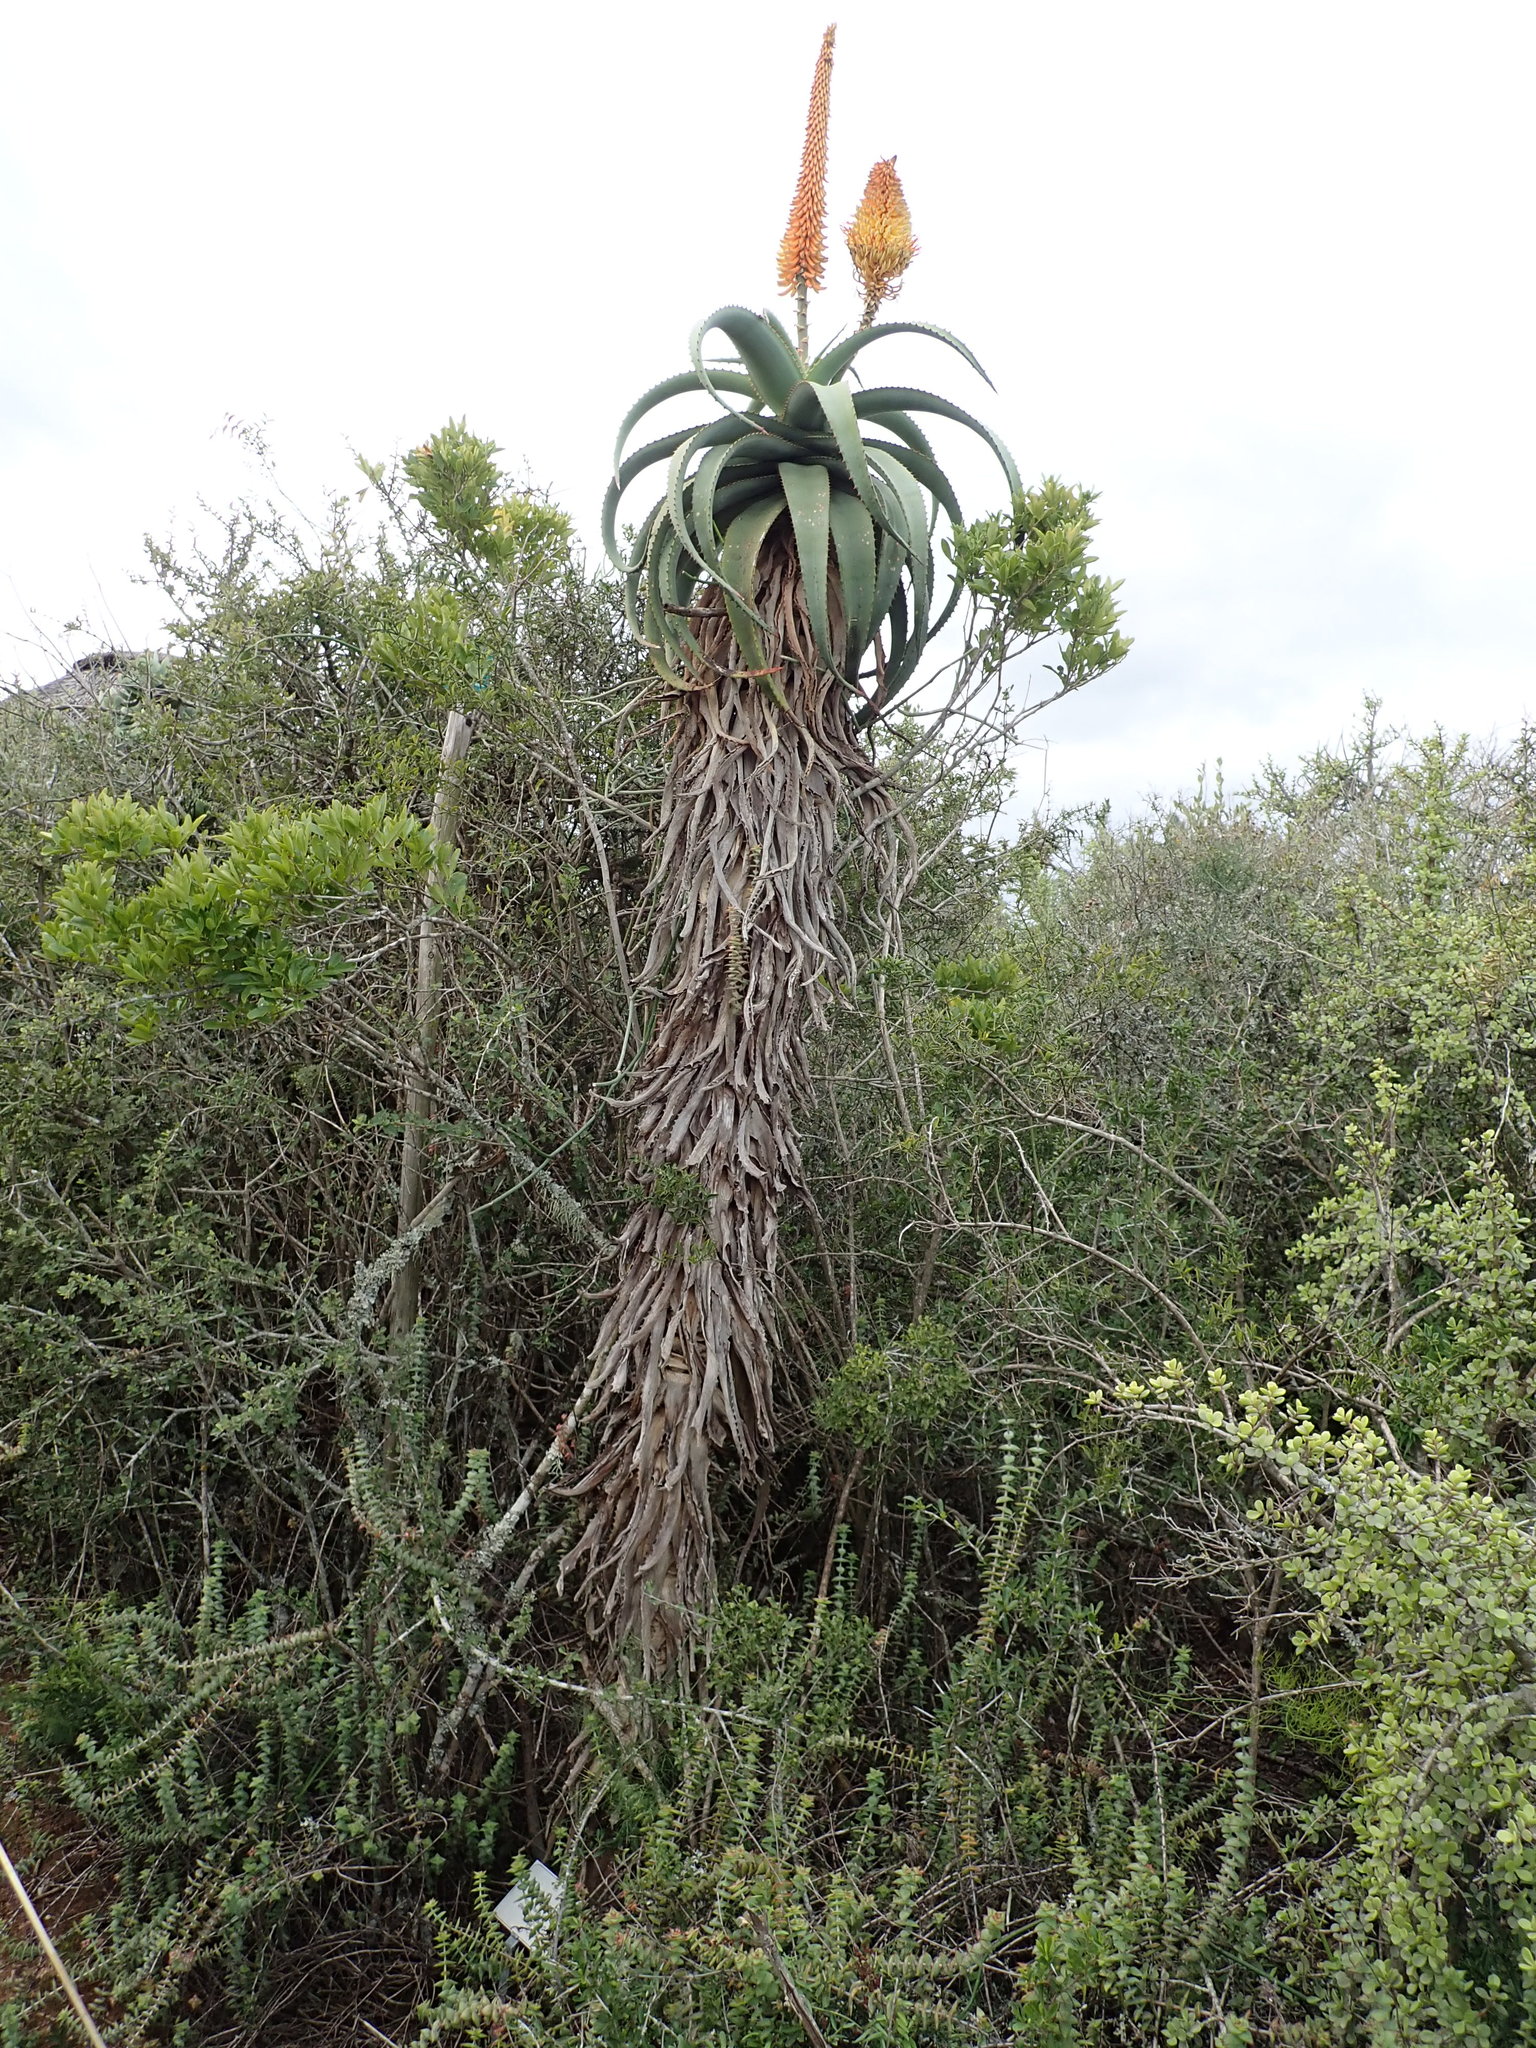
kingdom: Plantae
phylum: Tracheophyta
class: Liliopsida
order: Asparagales
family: Asphodelaceae
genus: Aloe
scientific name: Aloe africana
